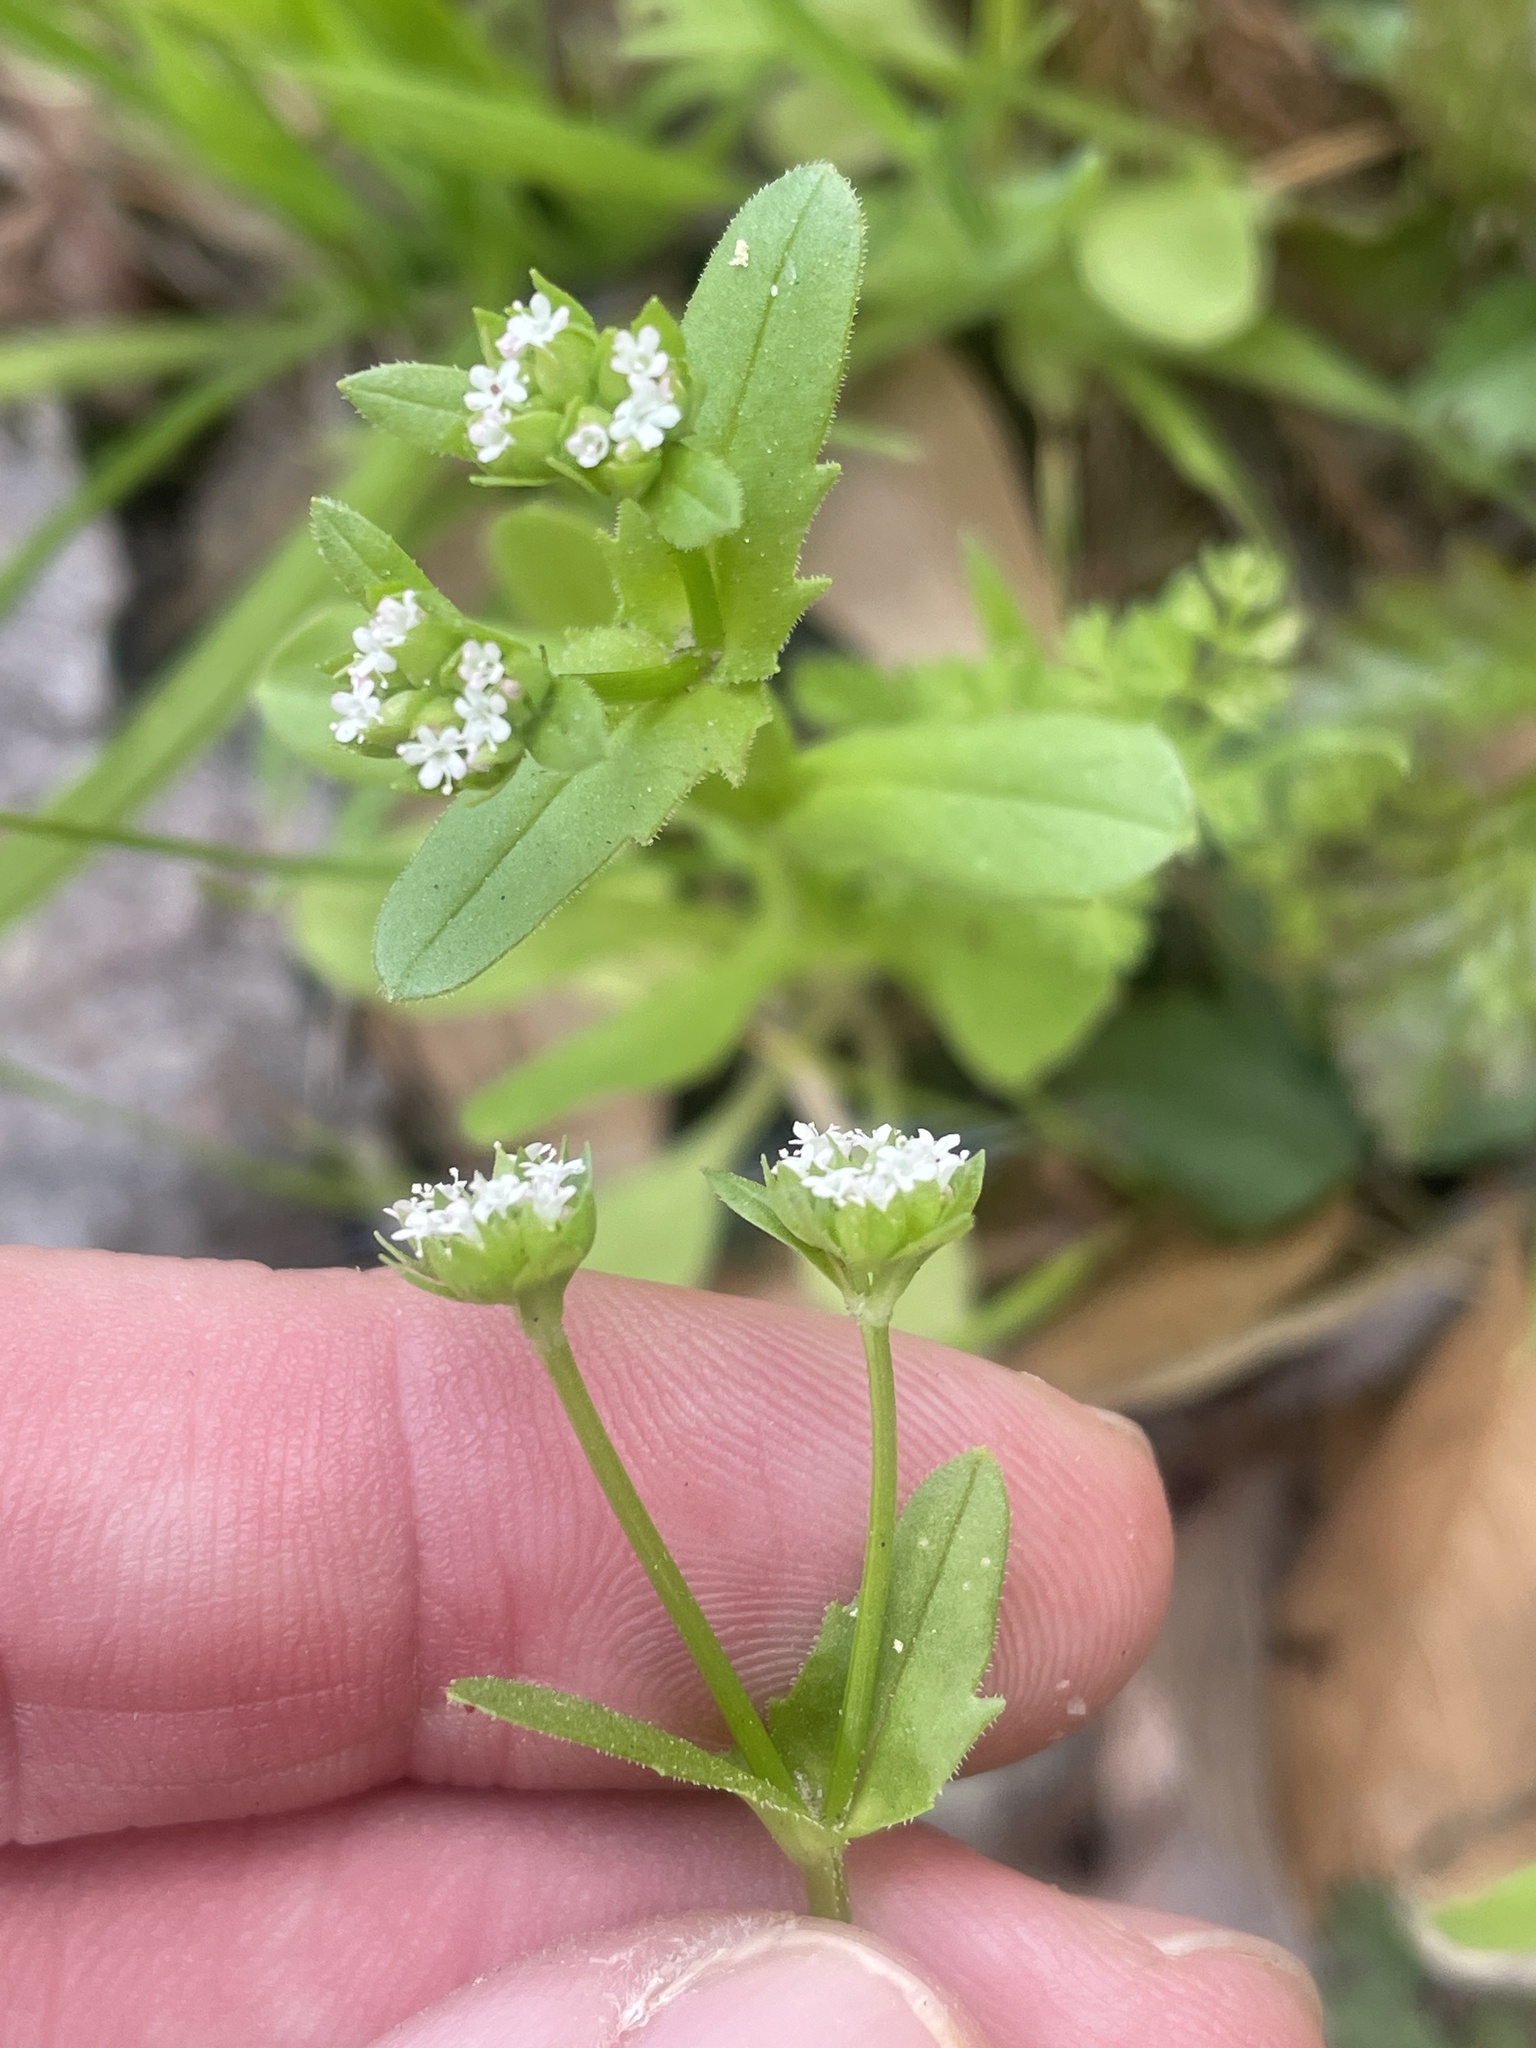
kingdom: Plantae
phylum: Tracheophyta
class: Magnoliopsida
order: Dipsacales
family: Caprifoliaceae
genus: Valerianella
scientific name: Valerianella radiata
